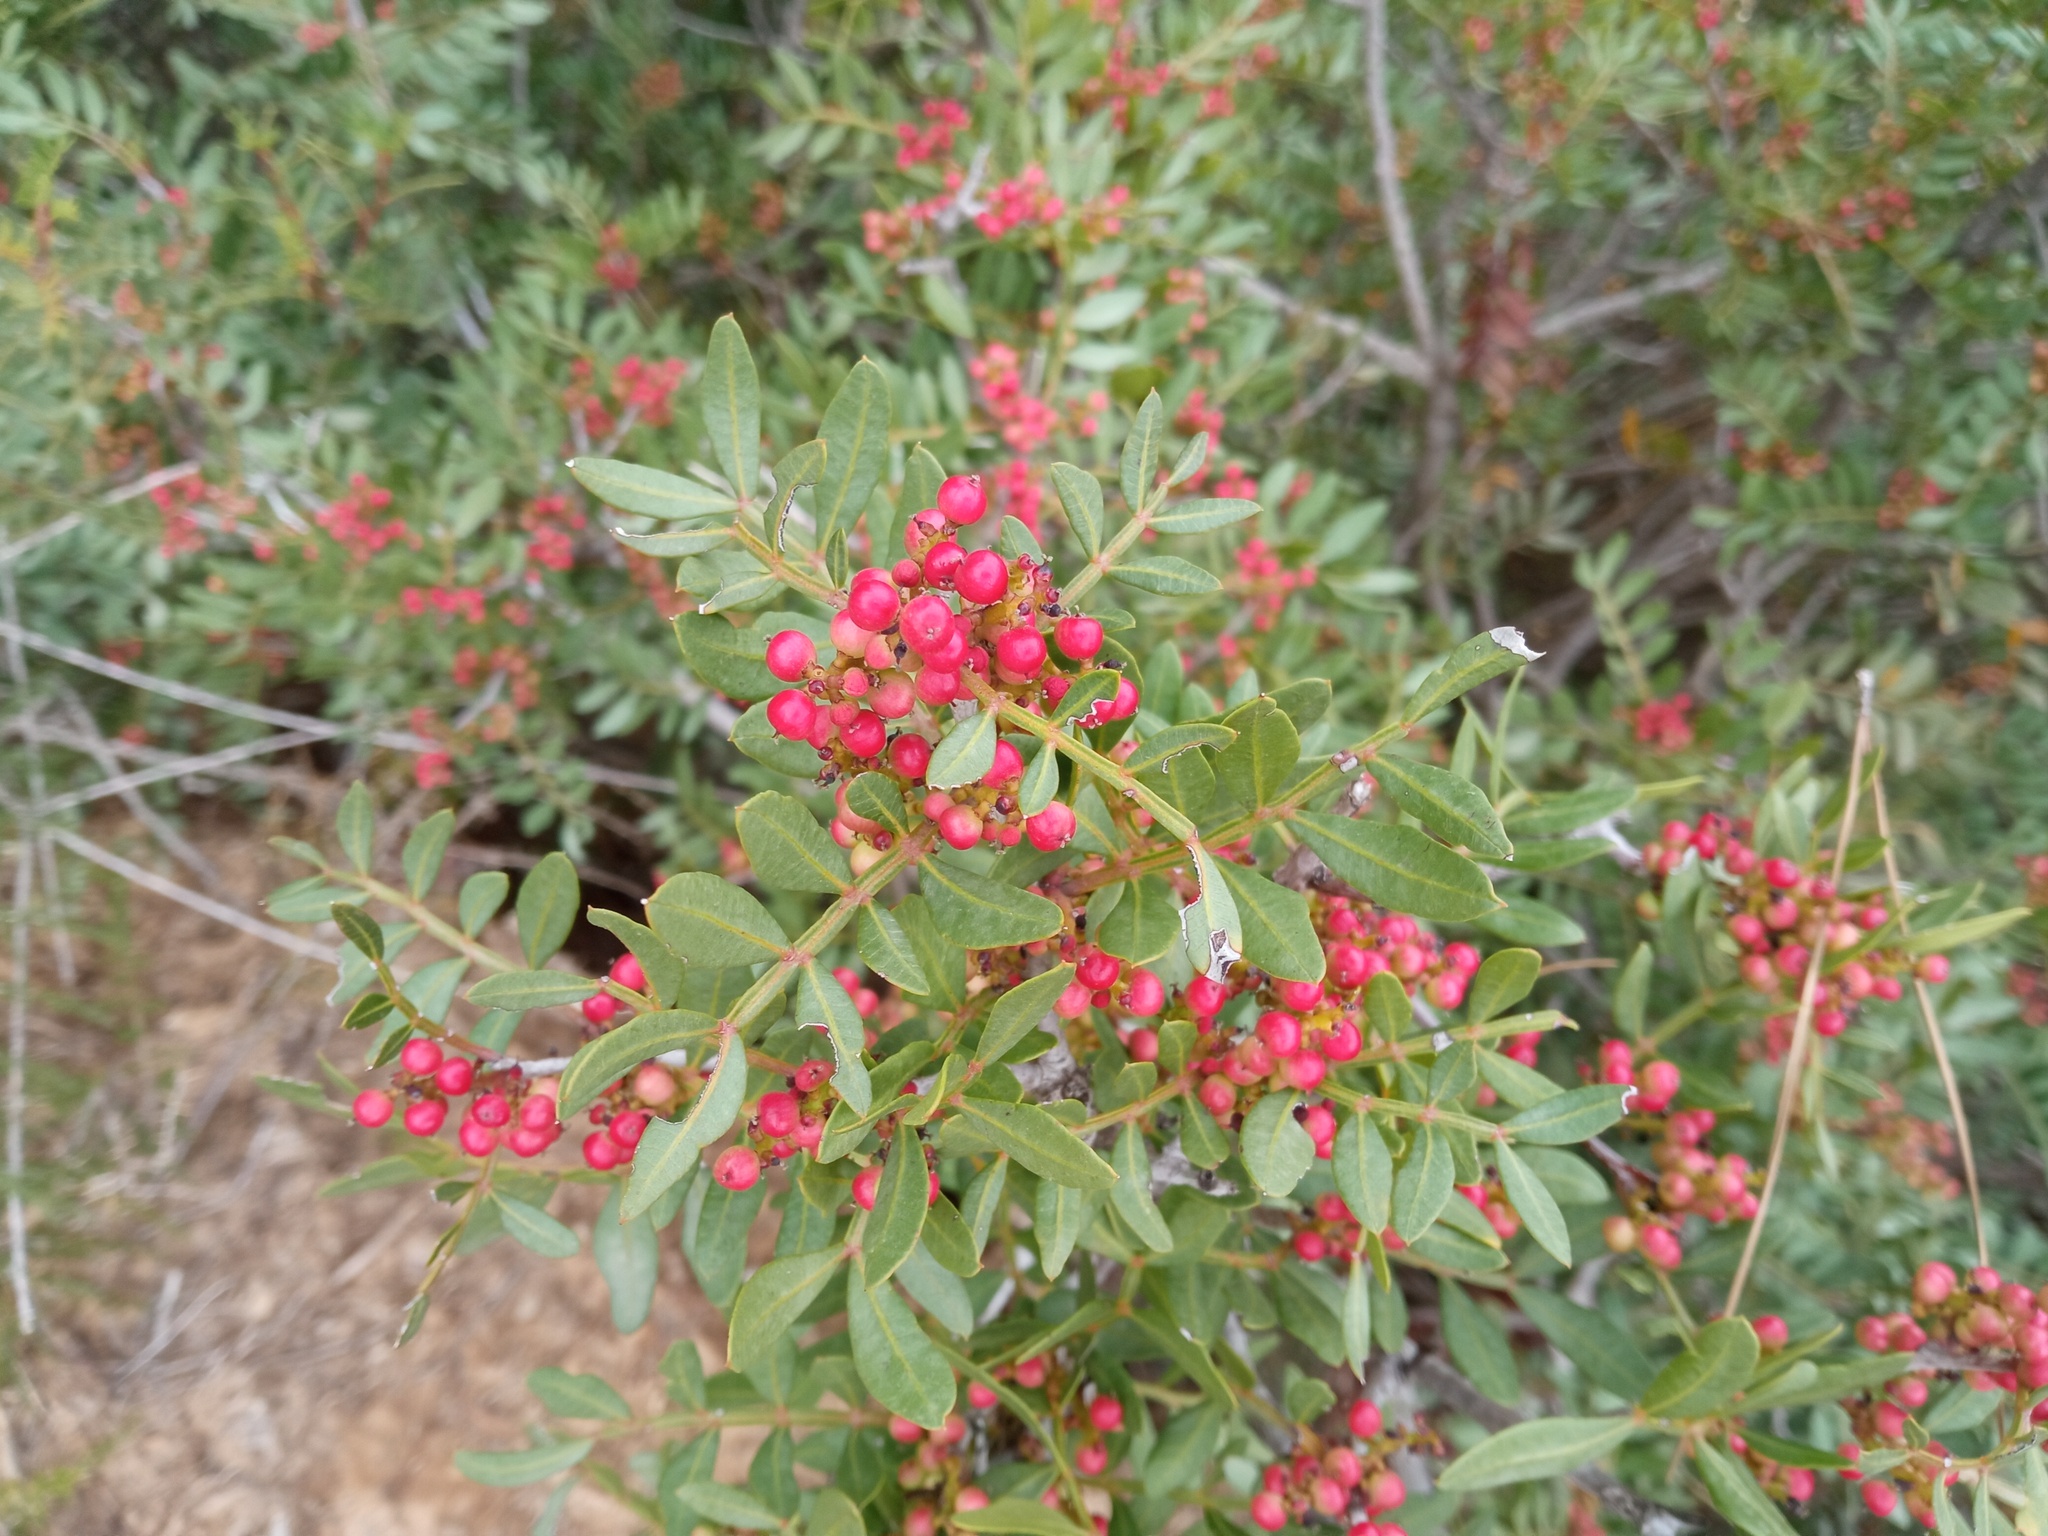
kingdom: Plantae
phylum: Tracheophyta
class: Magnoliopsida
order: Sapindales
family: Anacardiaceae
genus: Pistacia
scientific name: Pistacia lentiscus
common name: Lentisk
